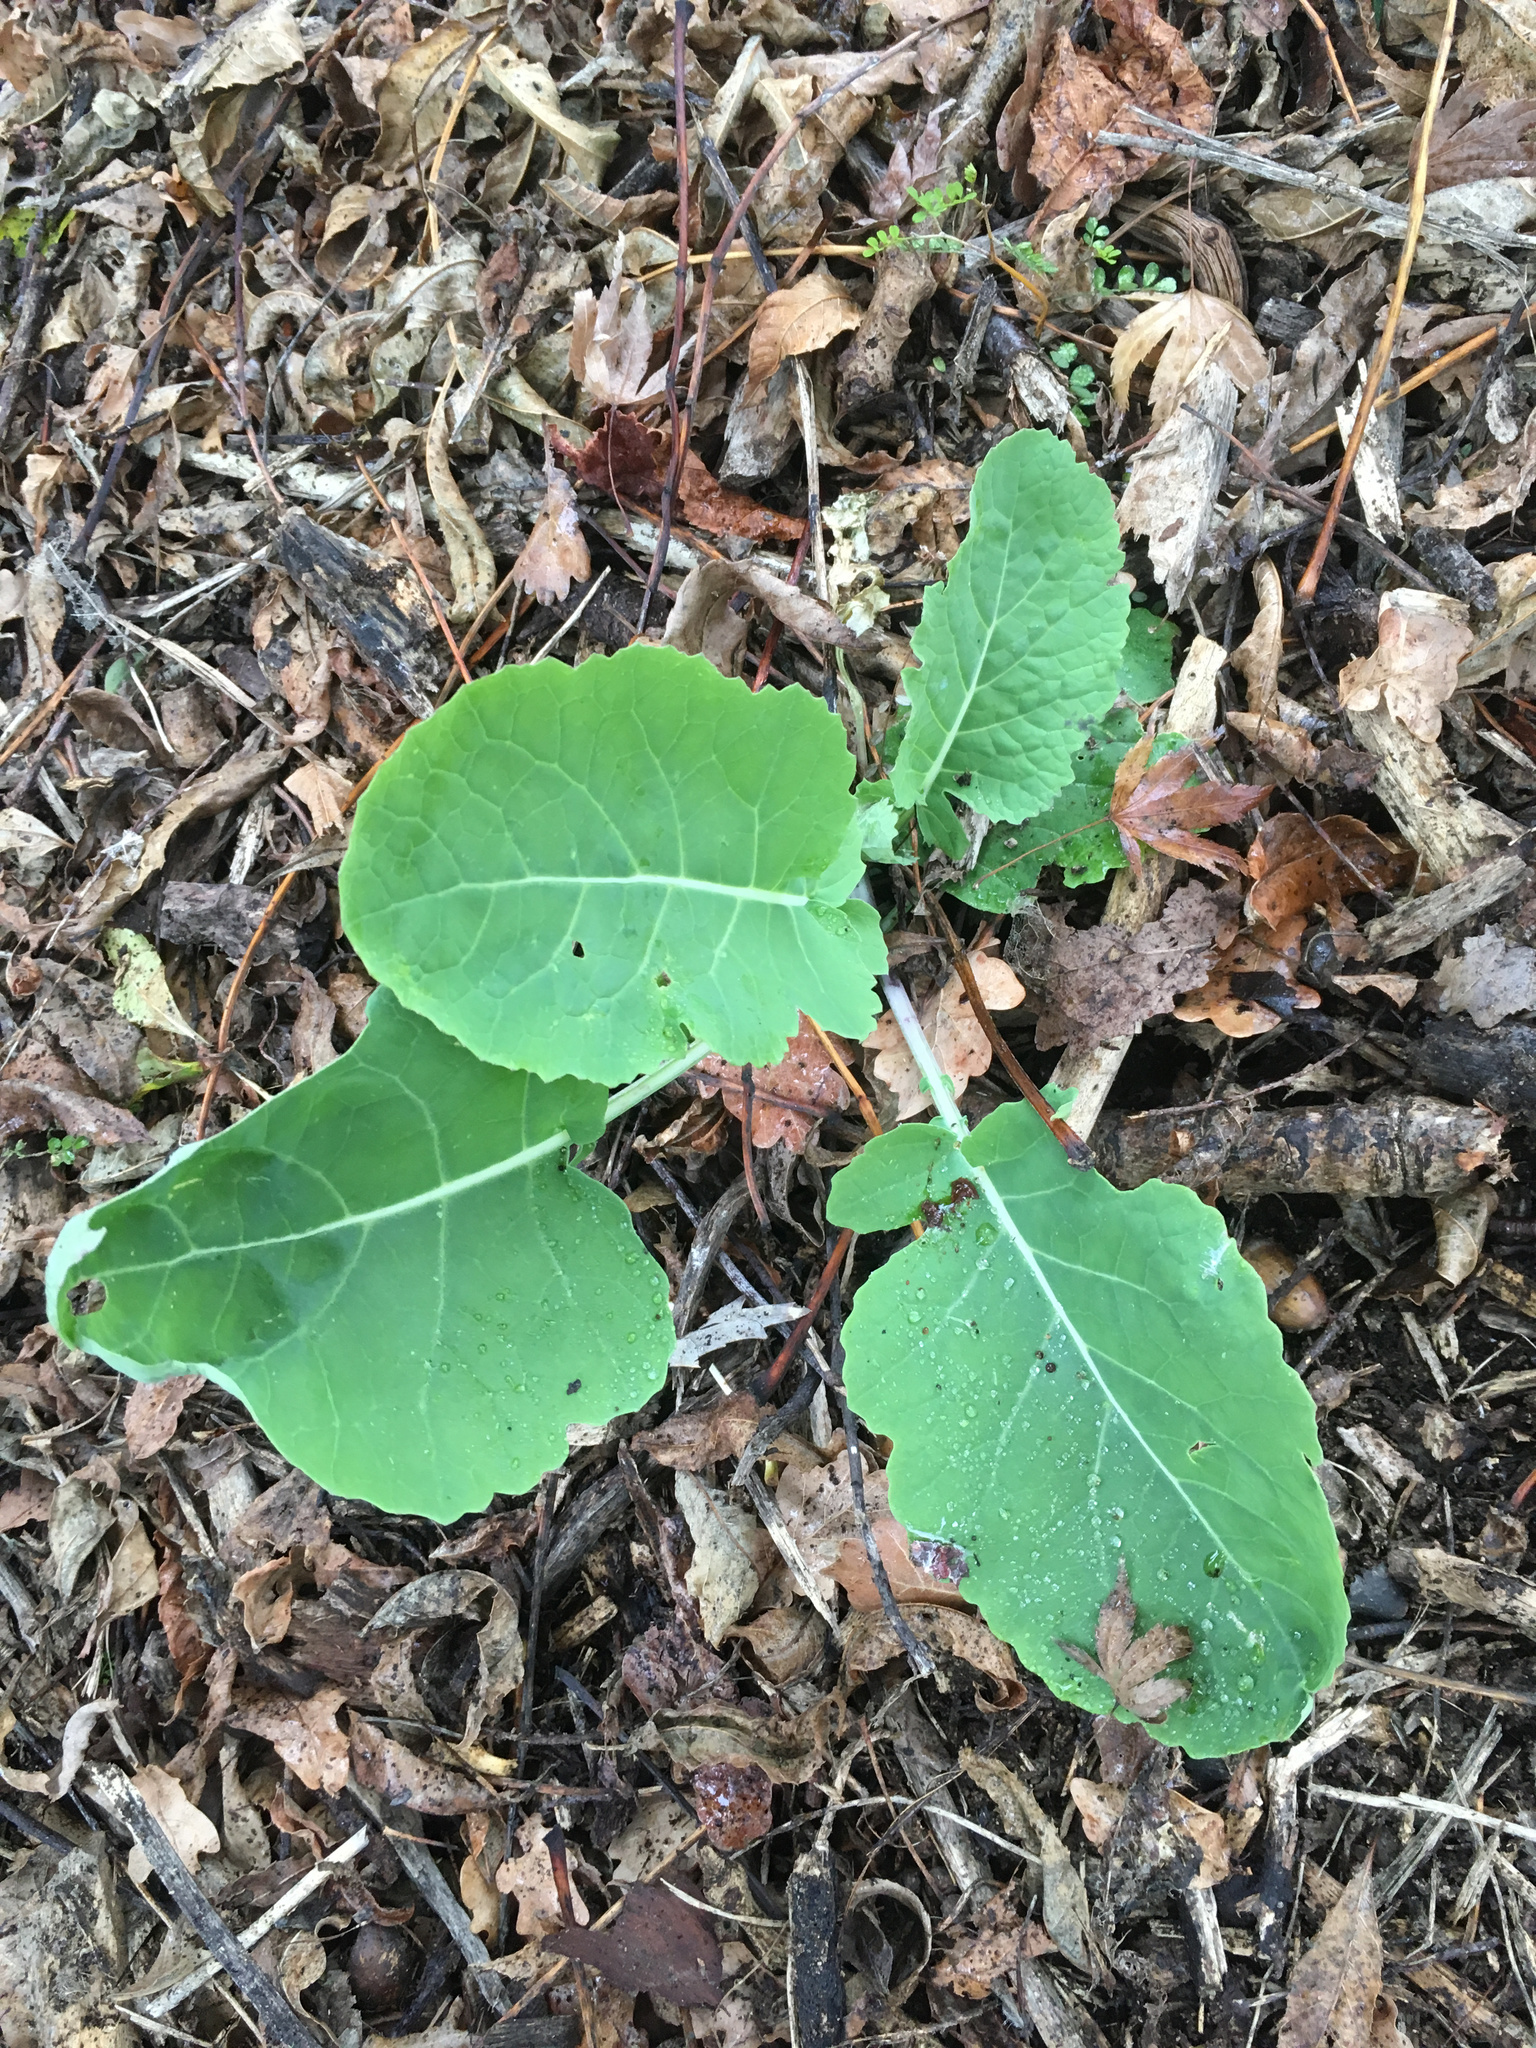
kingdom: Plantae
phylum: Tracheophyta
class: Magnoliopsida
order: Brassicales
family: Brassicaceae
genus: Brassica
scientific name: Brassica oleracea
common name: Cabbage
